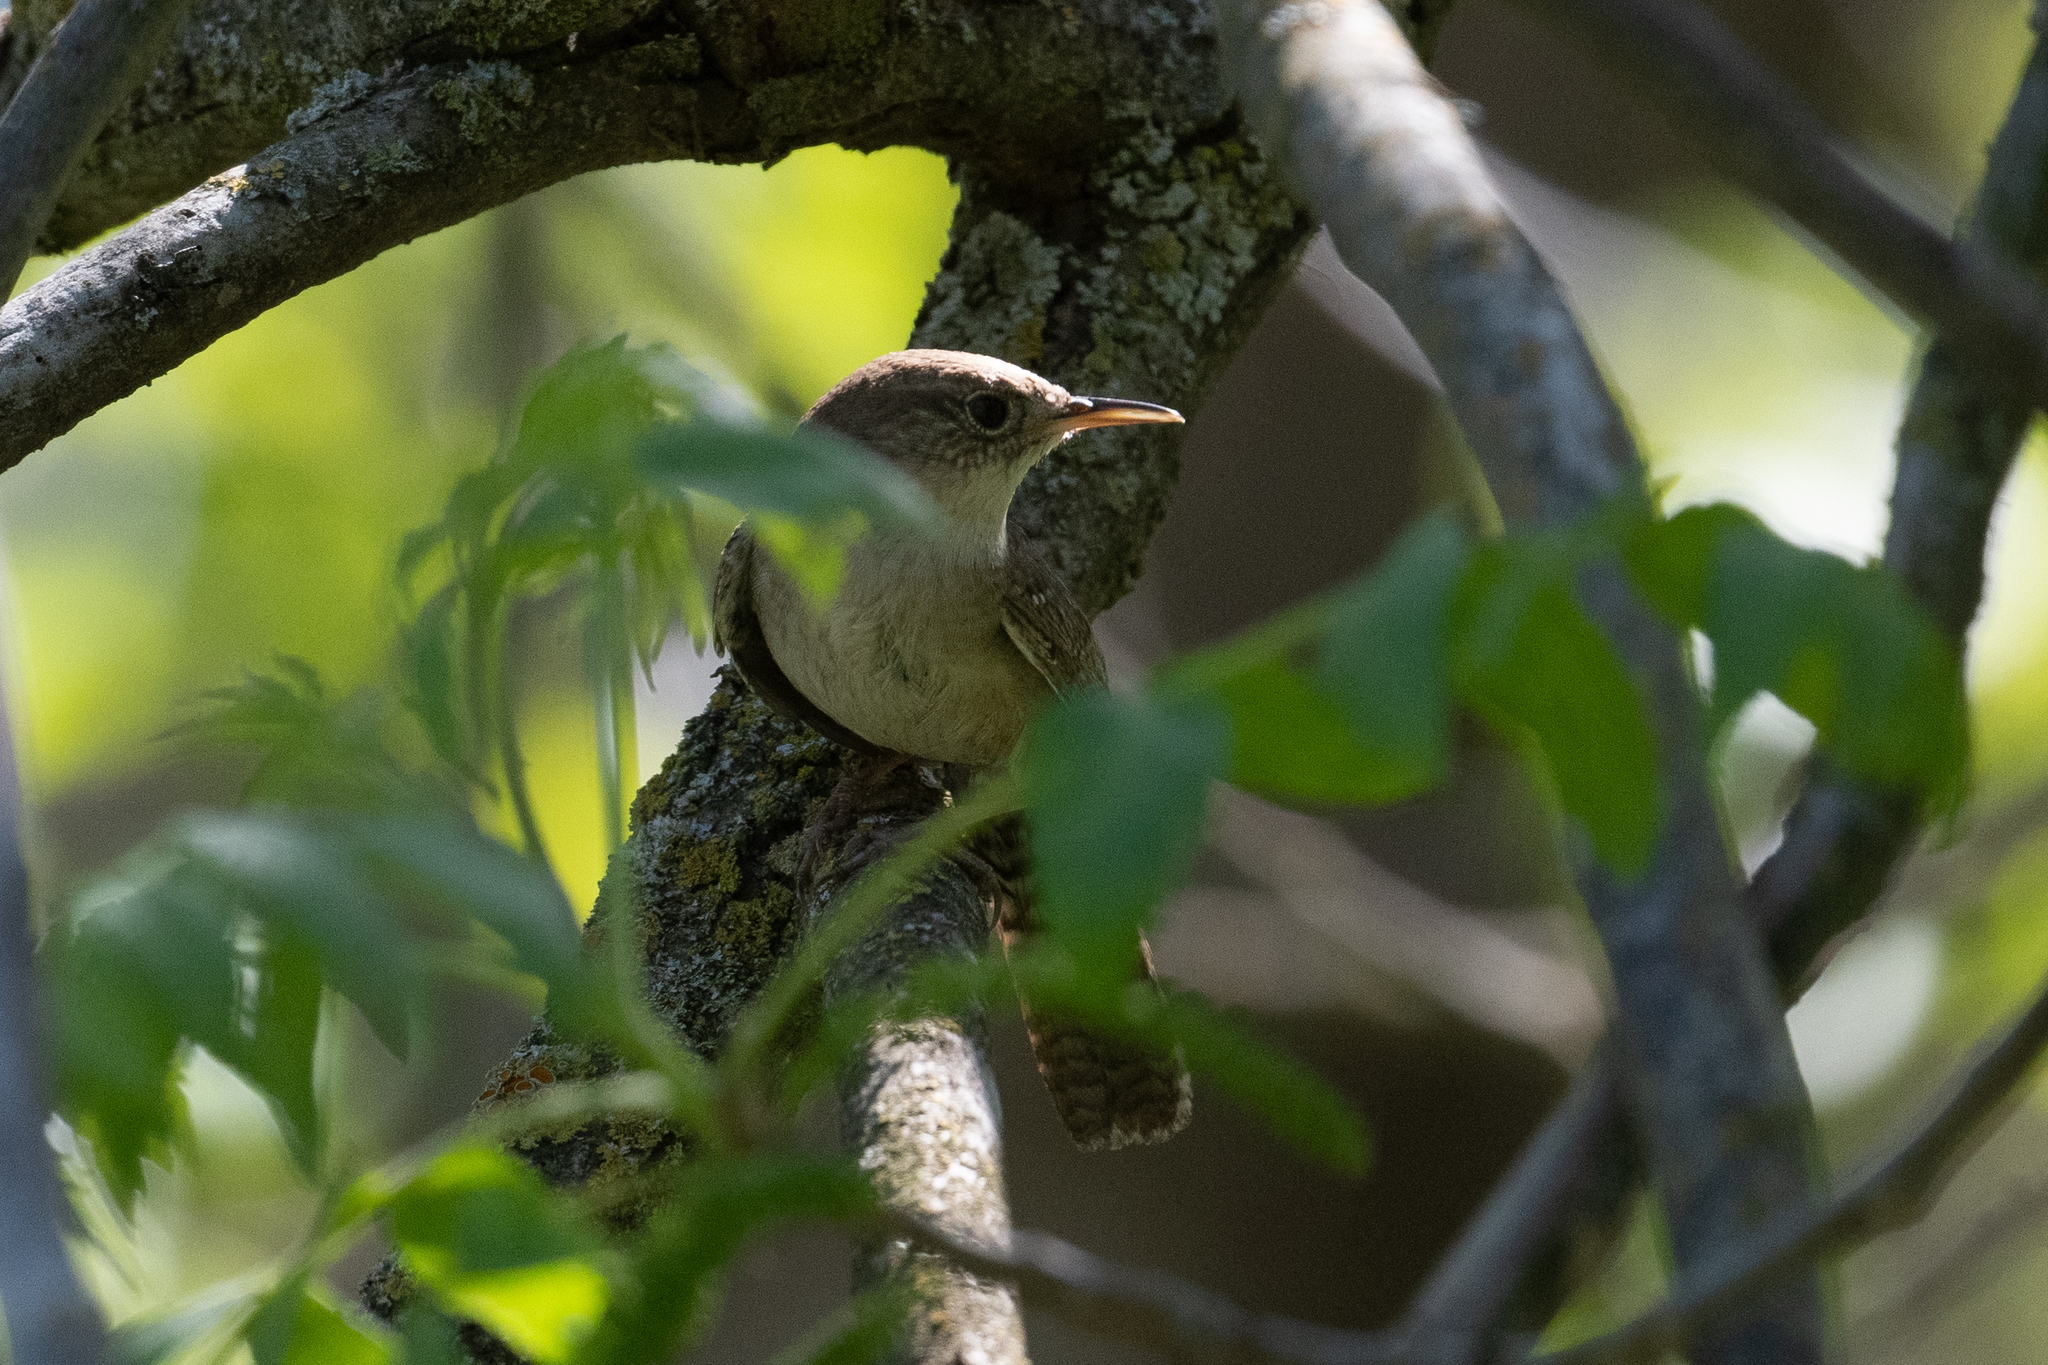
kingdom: Animalia
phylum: Chordata
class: Aves
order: Passeriformes
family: Troglodytidae
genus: Troglodytes
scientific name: Troglodytes aedon
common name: House wren
